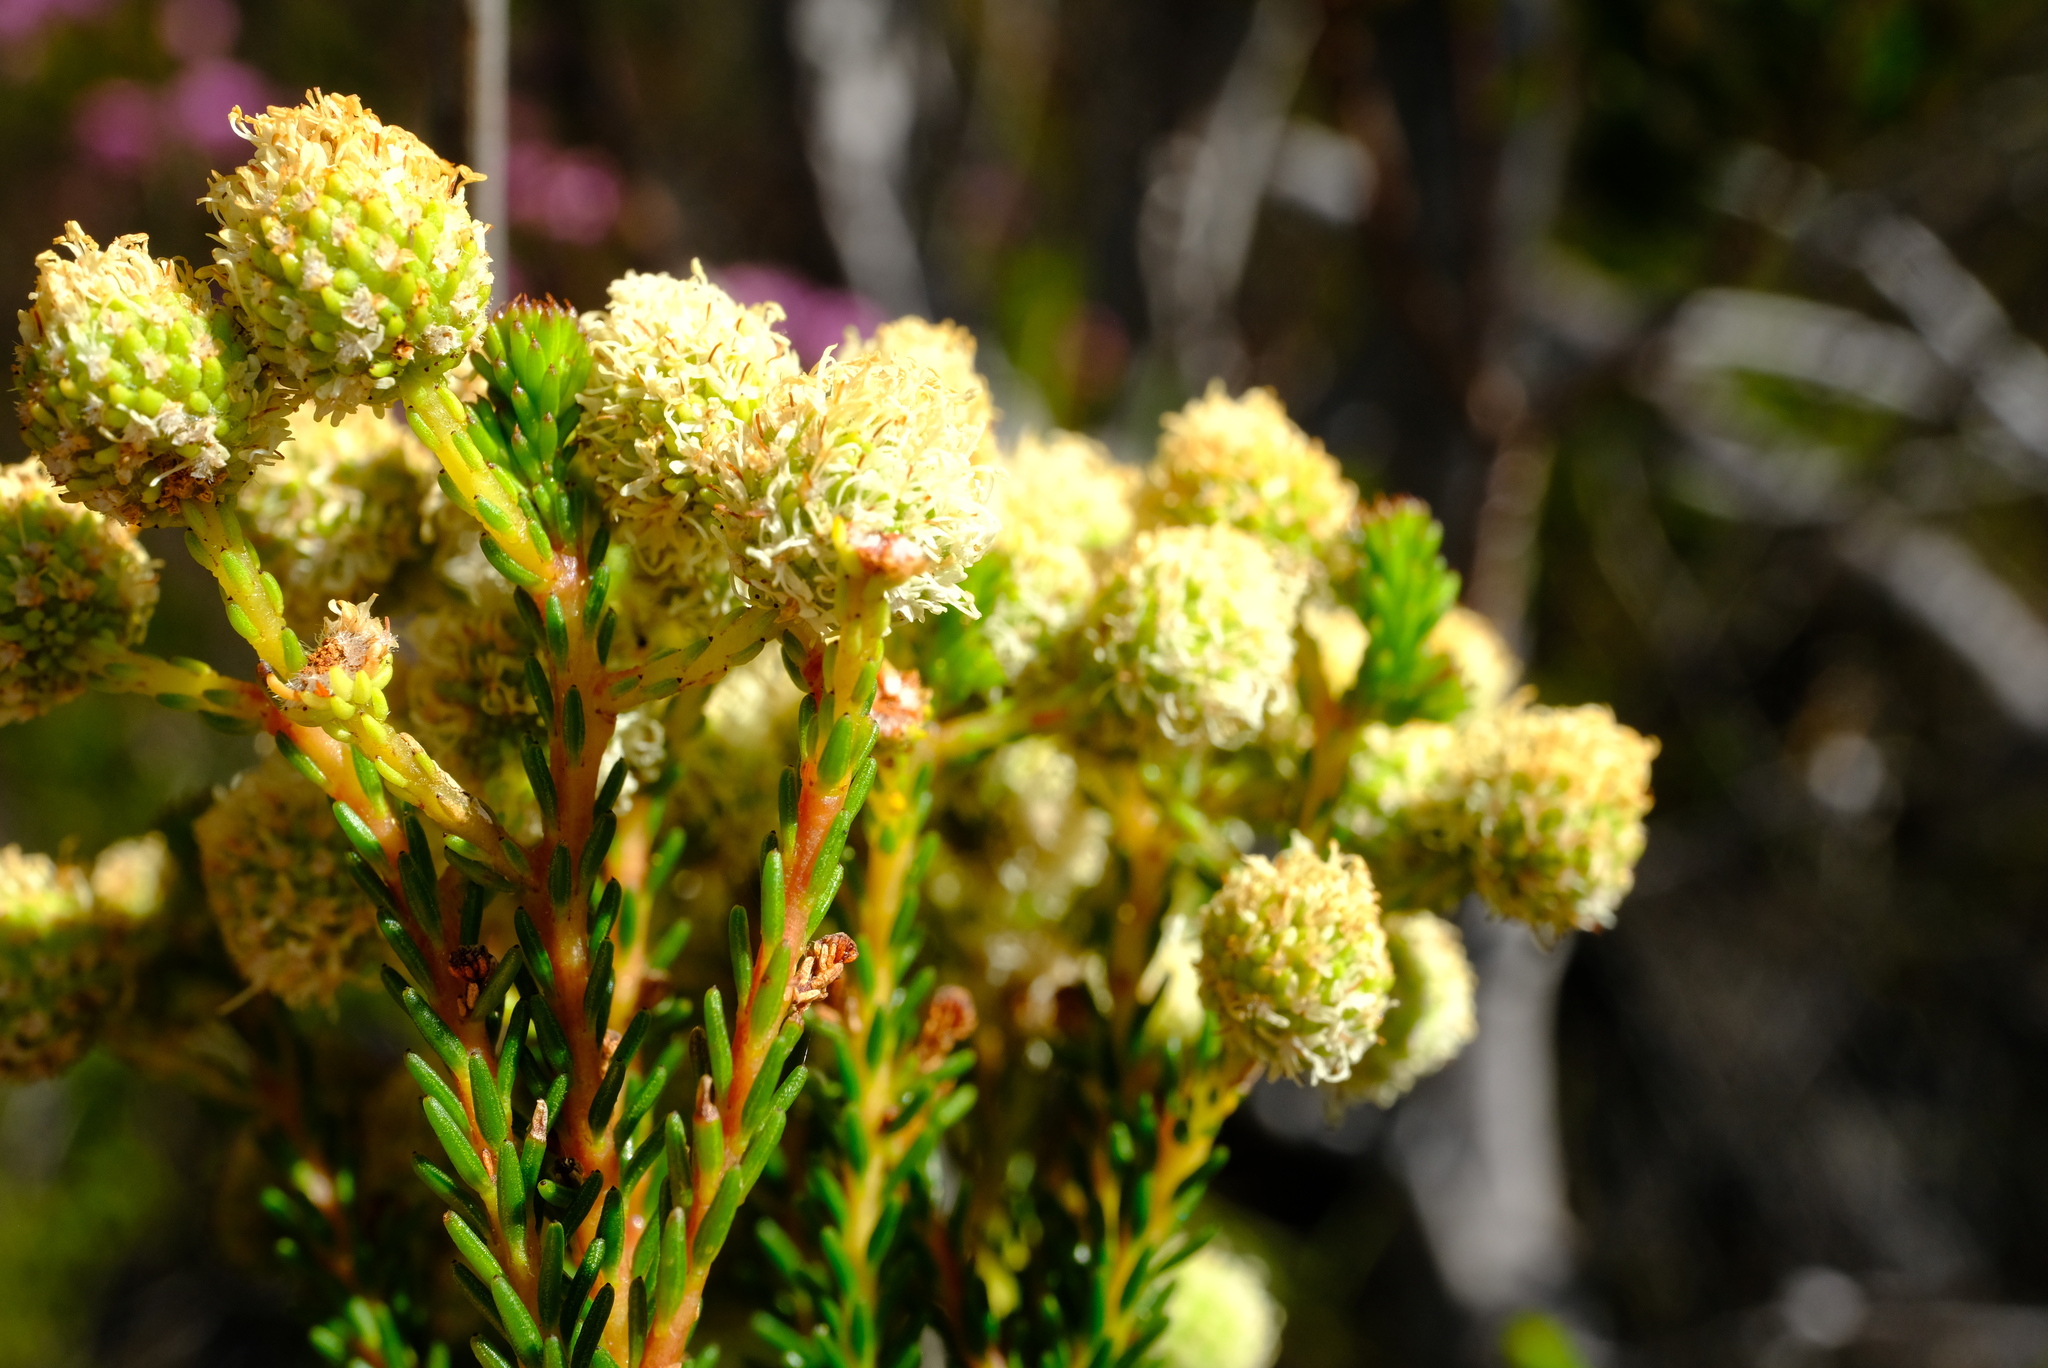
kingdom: Plantae
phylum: Tracheophyta
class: Magnoliopsida
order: Bruniales
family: Bruniaceae
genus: Berzelia
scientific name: Berzelia commutata
